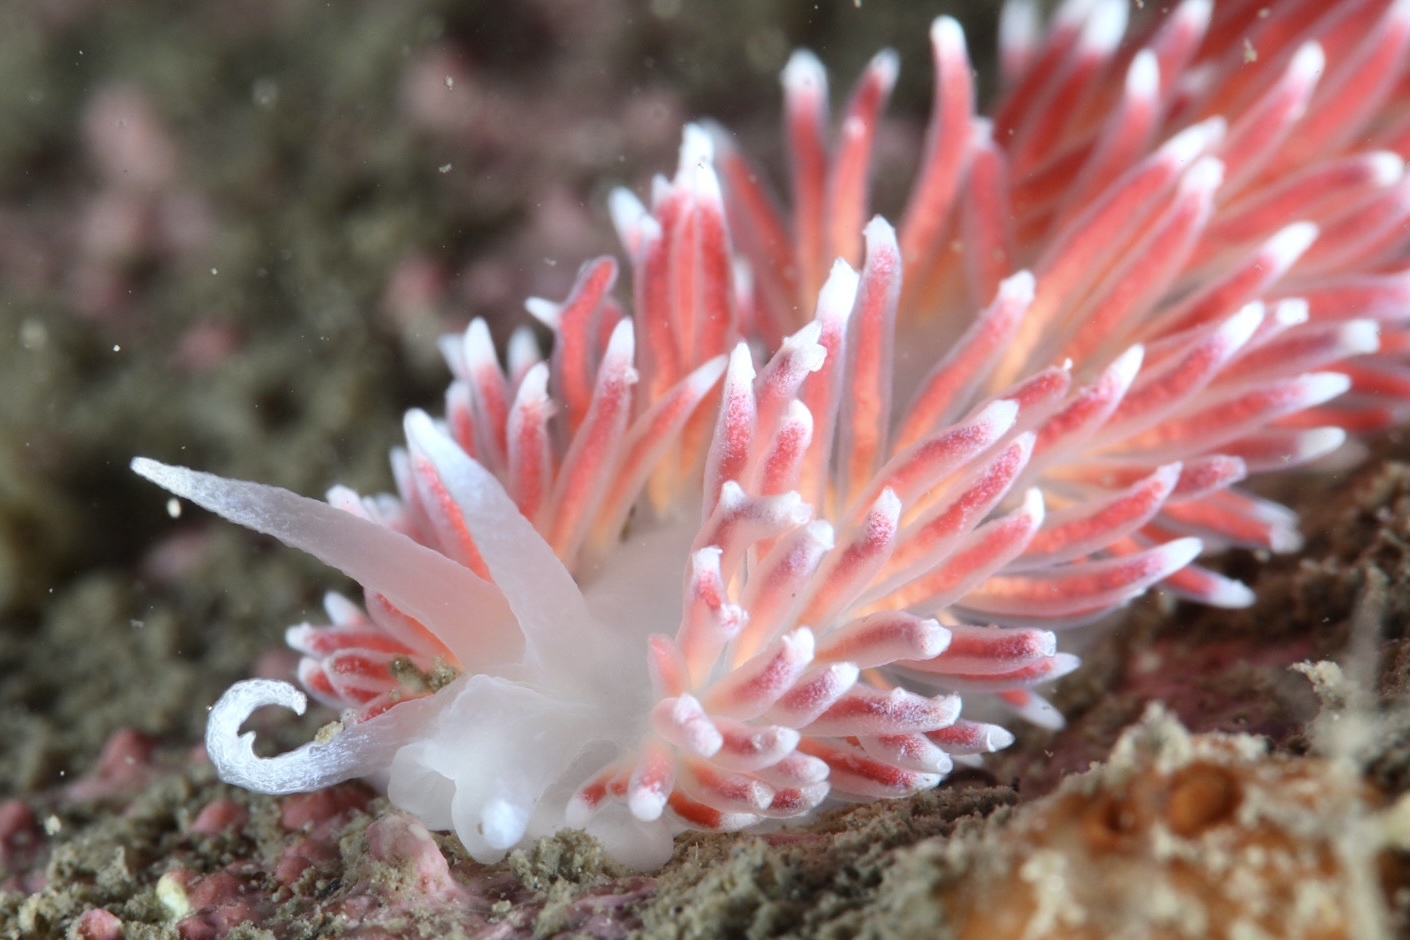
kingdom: Animalia
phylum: Mollusca
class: Gastropoda
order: Nudibranchia
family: Flabellinidae
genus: Carronella
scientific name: Carronella pellucida
